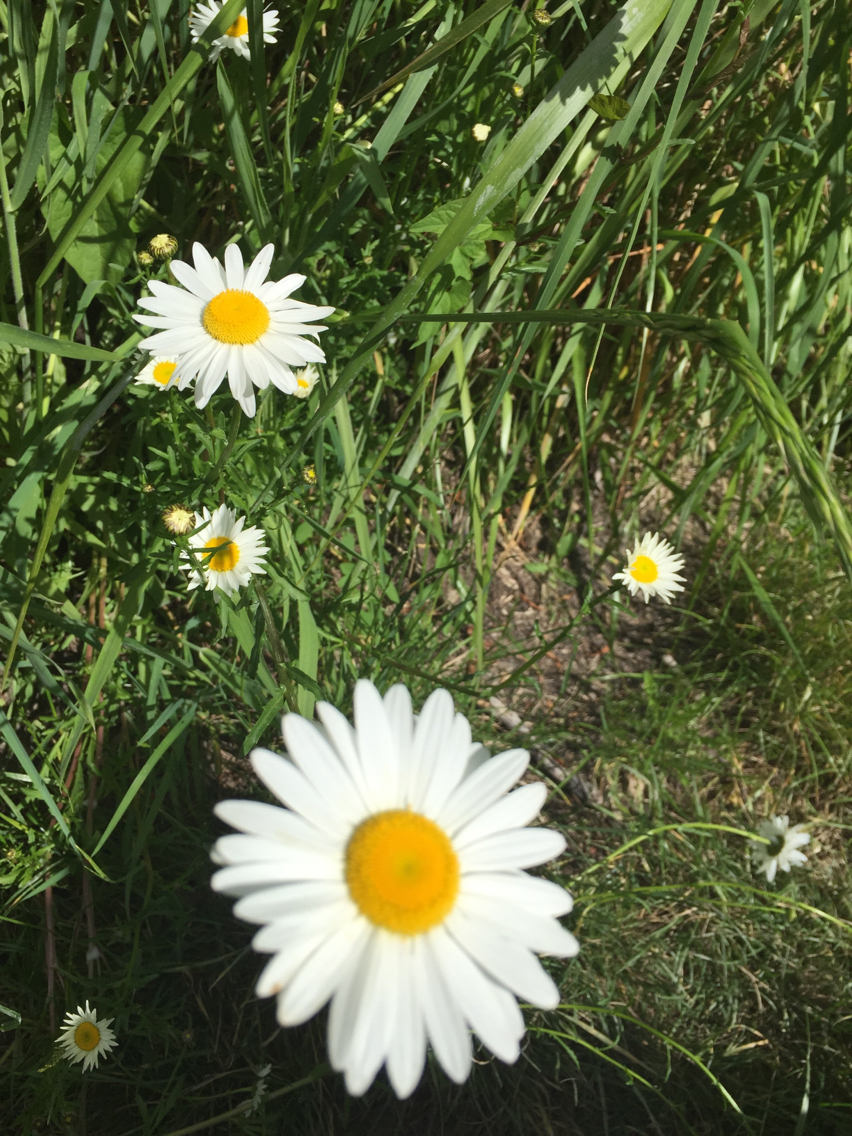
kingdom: Plantae
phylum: Tracheophyta
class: Magnoliopsida
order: Asterales
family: Asteraceae
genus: Leucanthemum
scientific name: Leucanthemum vulgare
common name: Oxeye daisy
